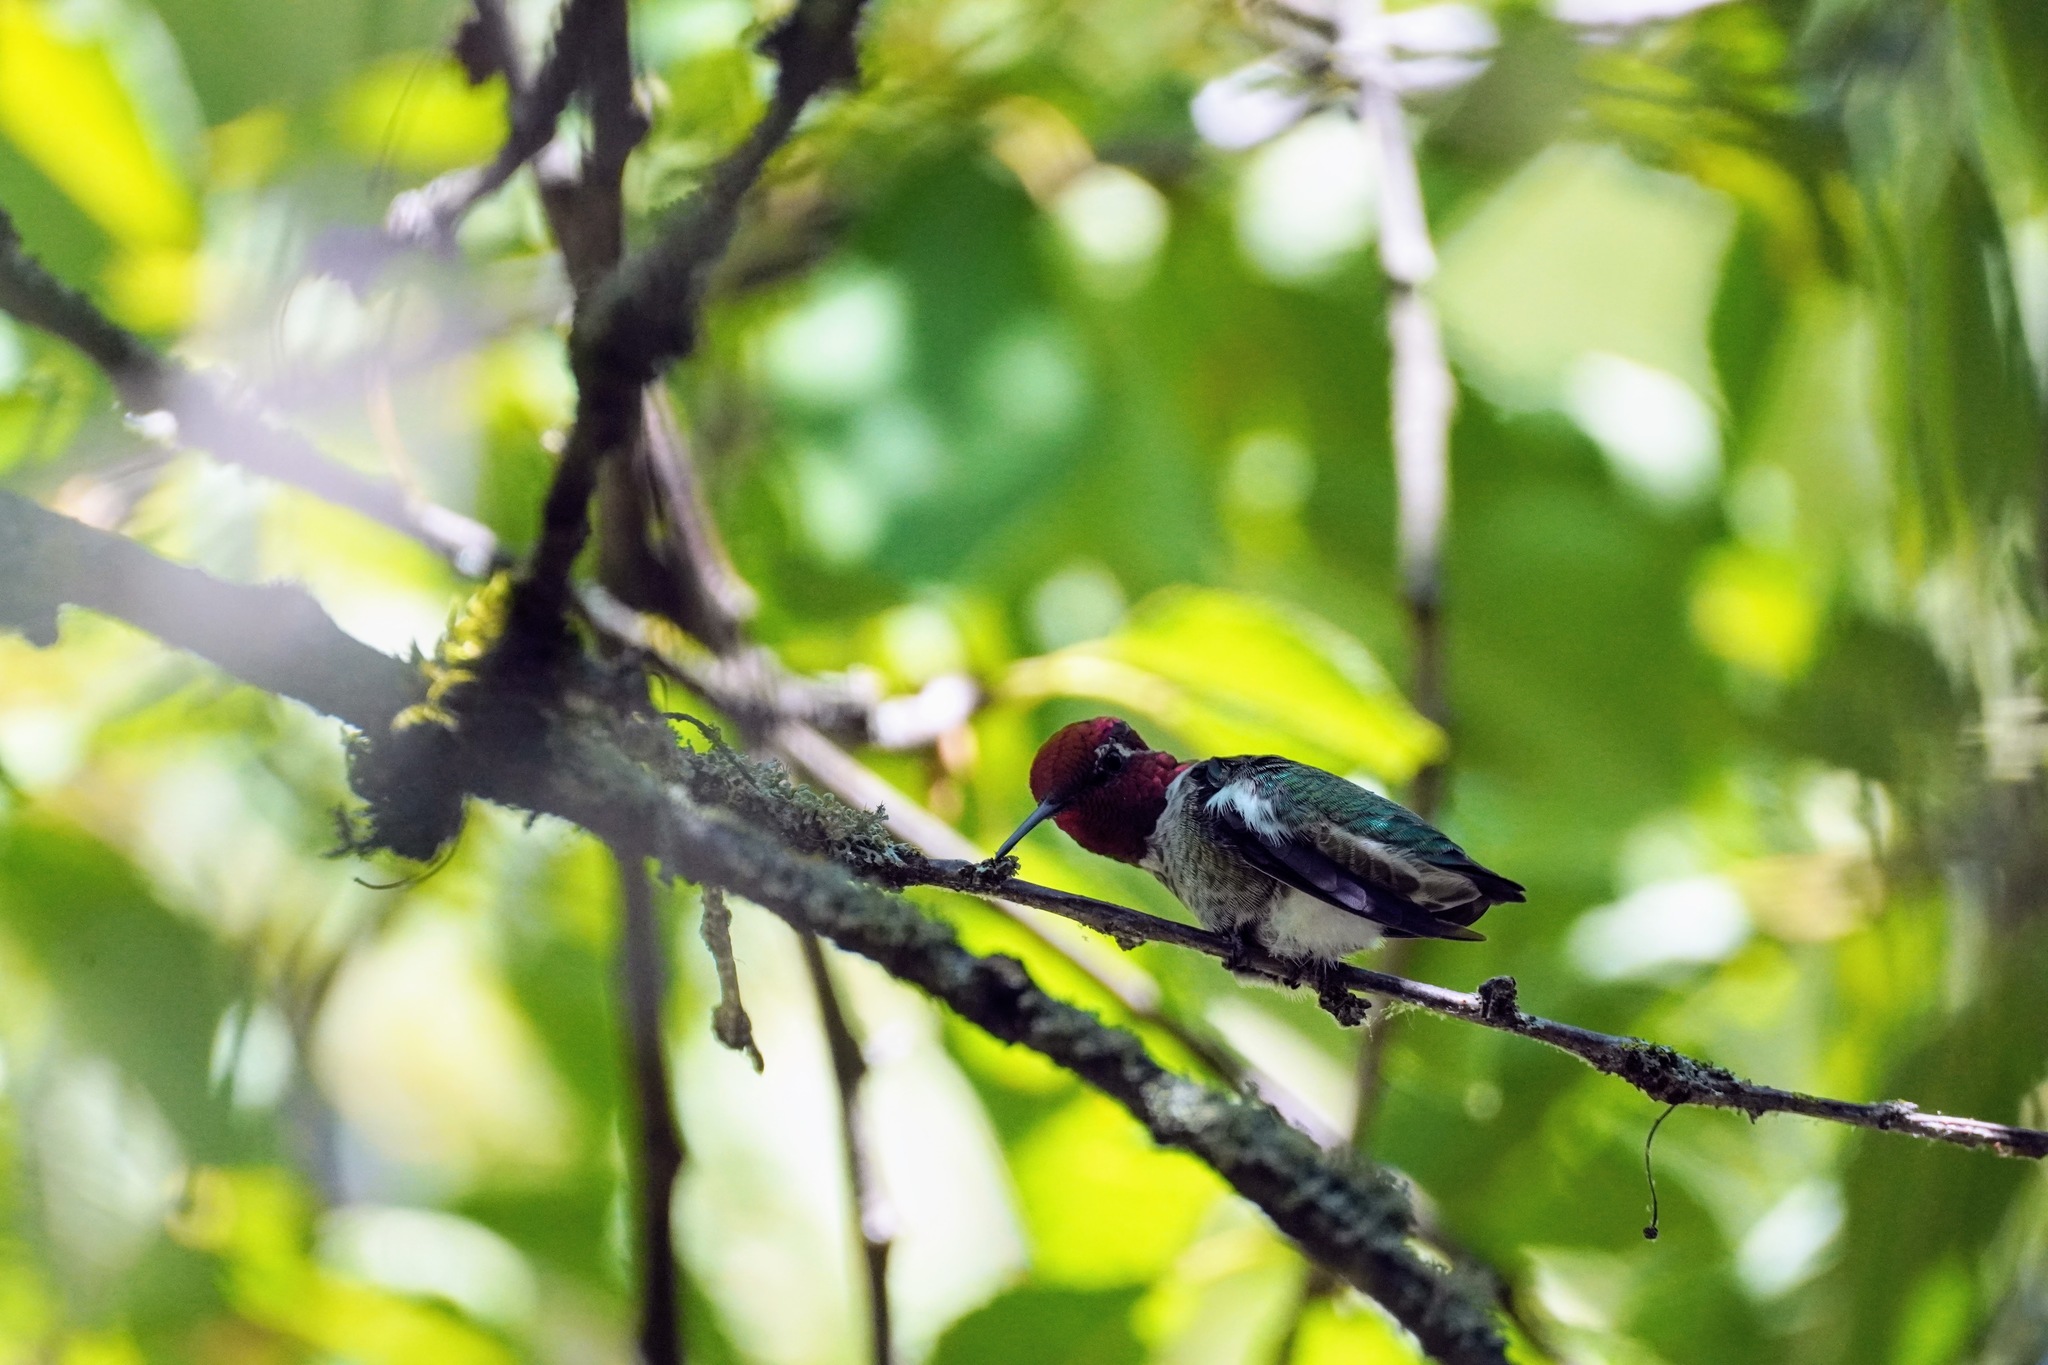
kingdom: Animalia
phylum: Chordata
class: Aves
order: Apodiformes
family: Trochilidae
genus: Calypte
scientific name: Calypte anna
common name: Anna's hummingbird
